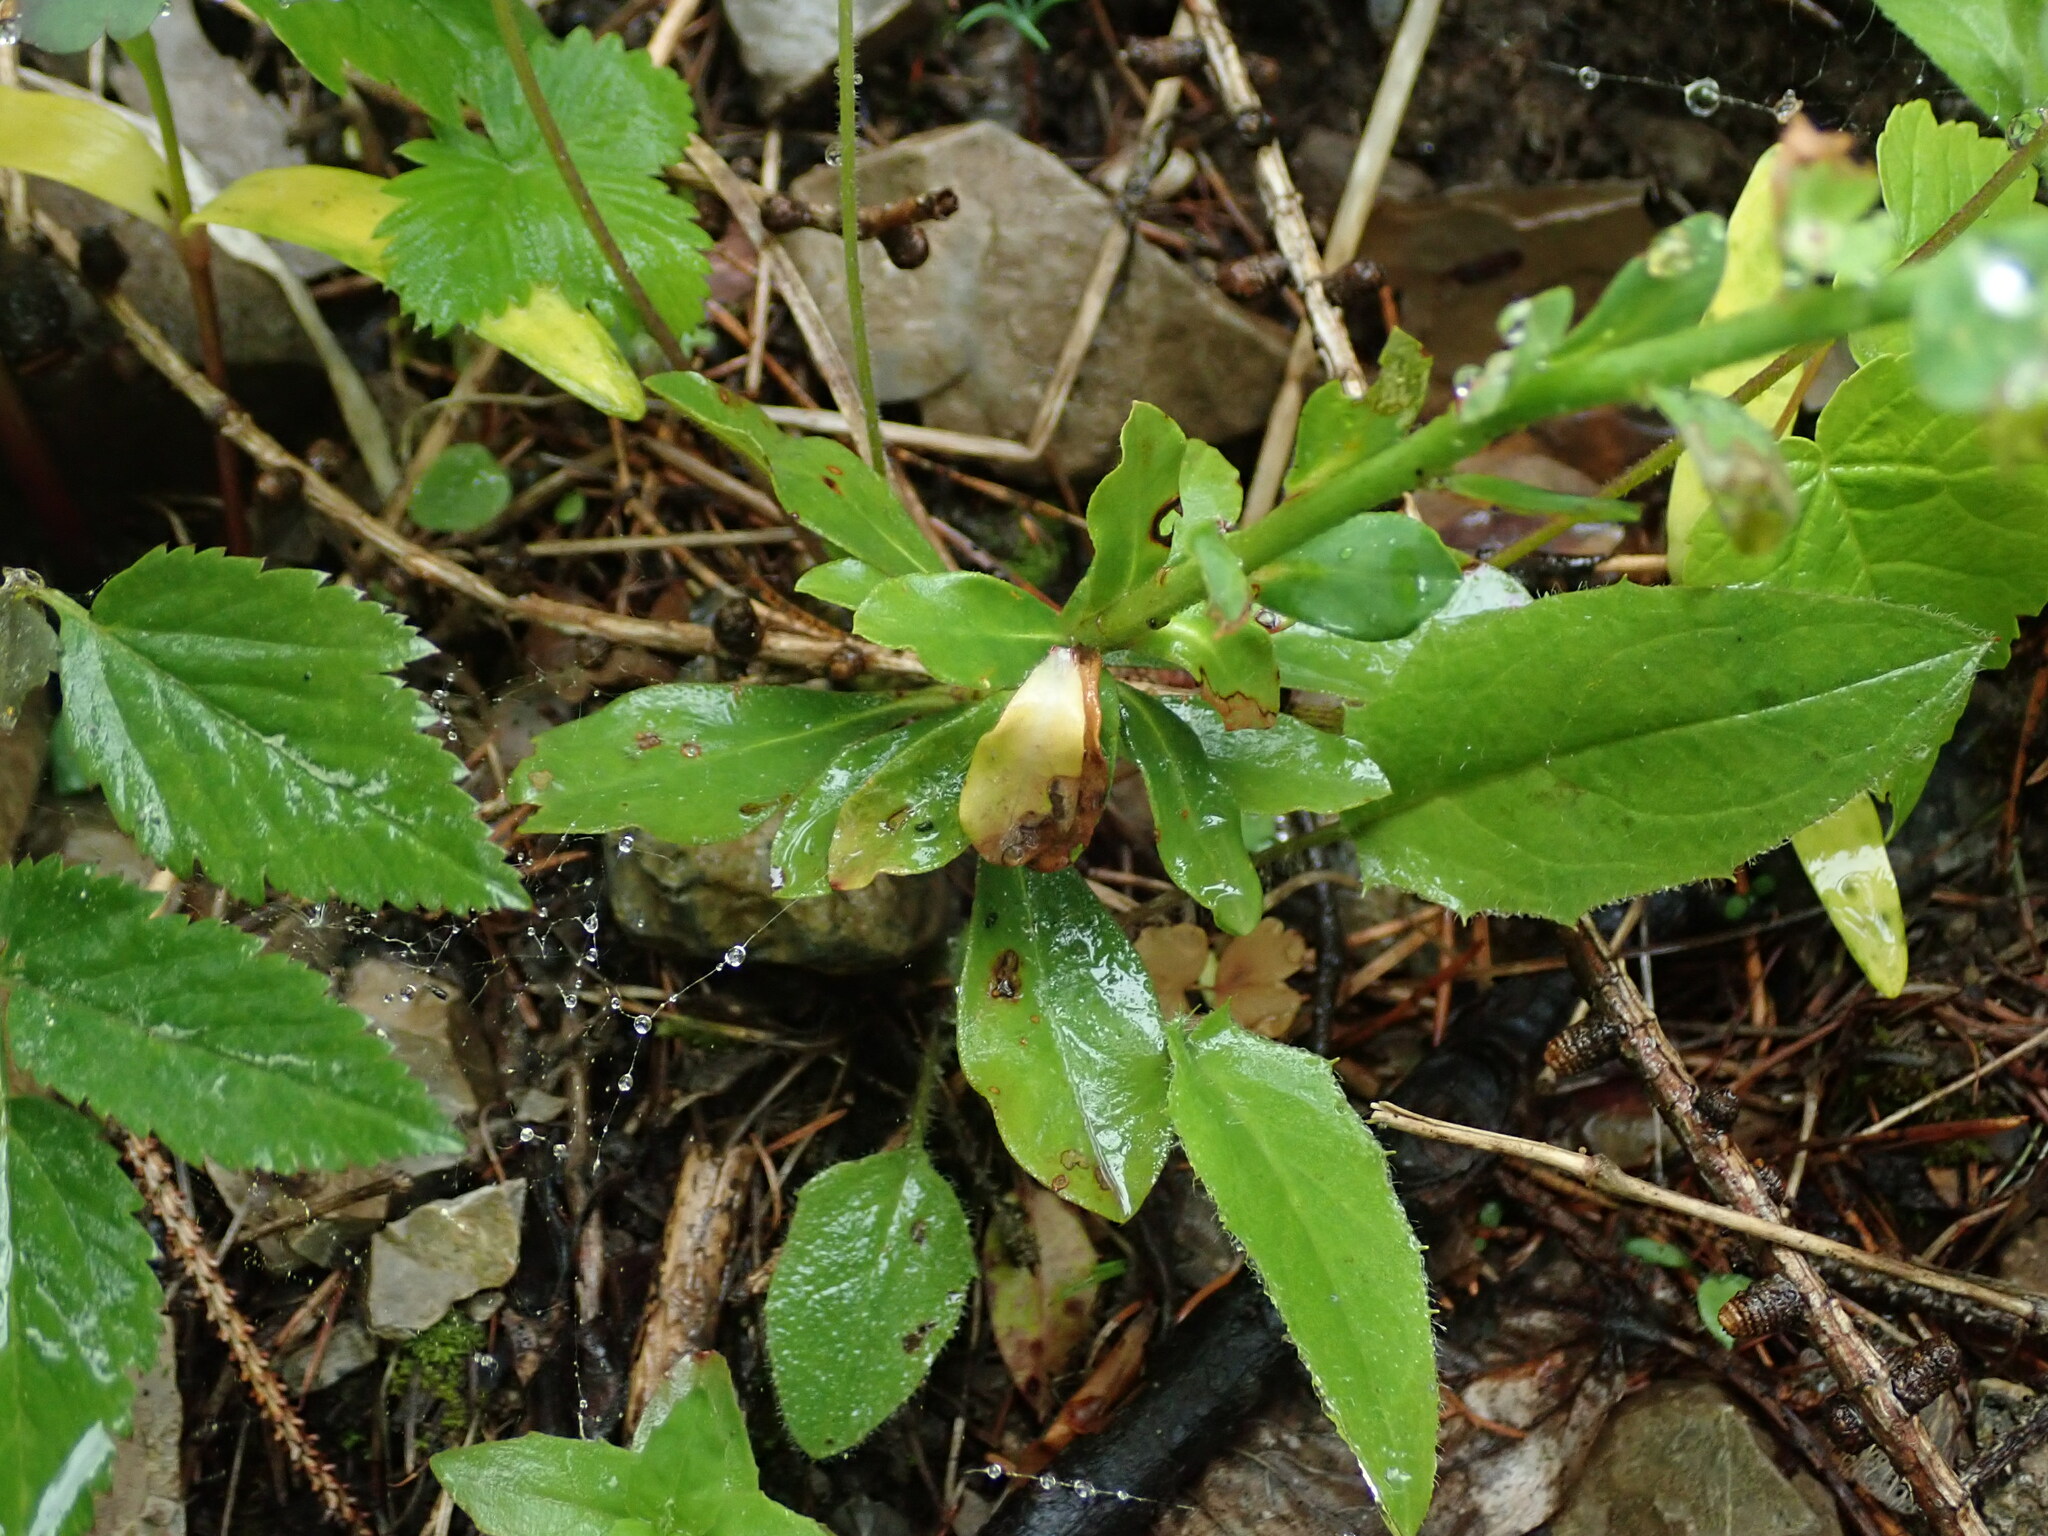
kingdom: Plantae
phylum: Tracheophyta
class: Magnoliopsida
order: Malpighiales
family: Euphorbiaceae
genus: Euphorbia
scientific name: Euphorbia amygdaloides
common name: Wood spurge
